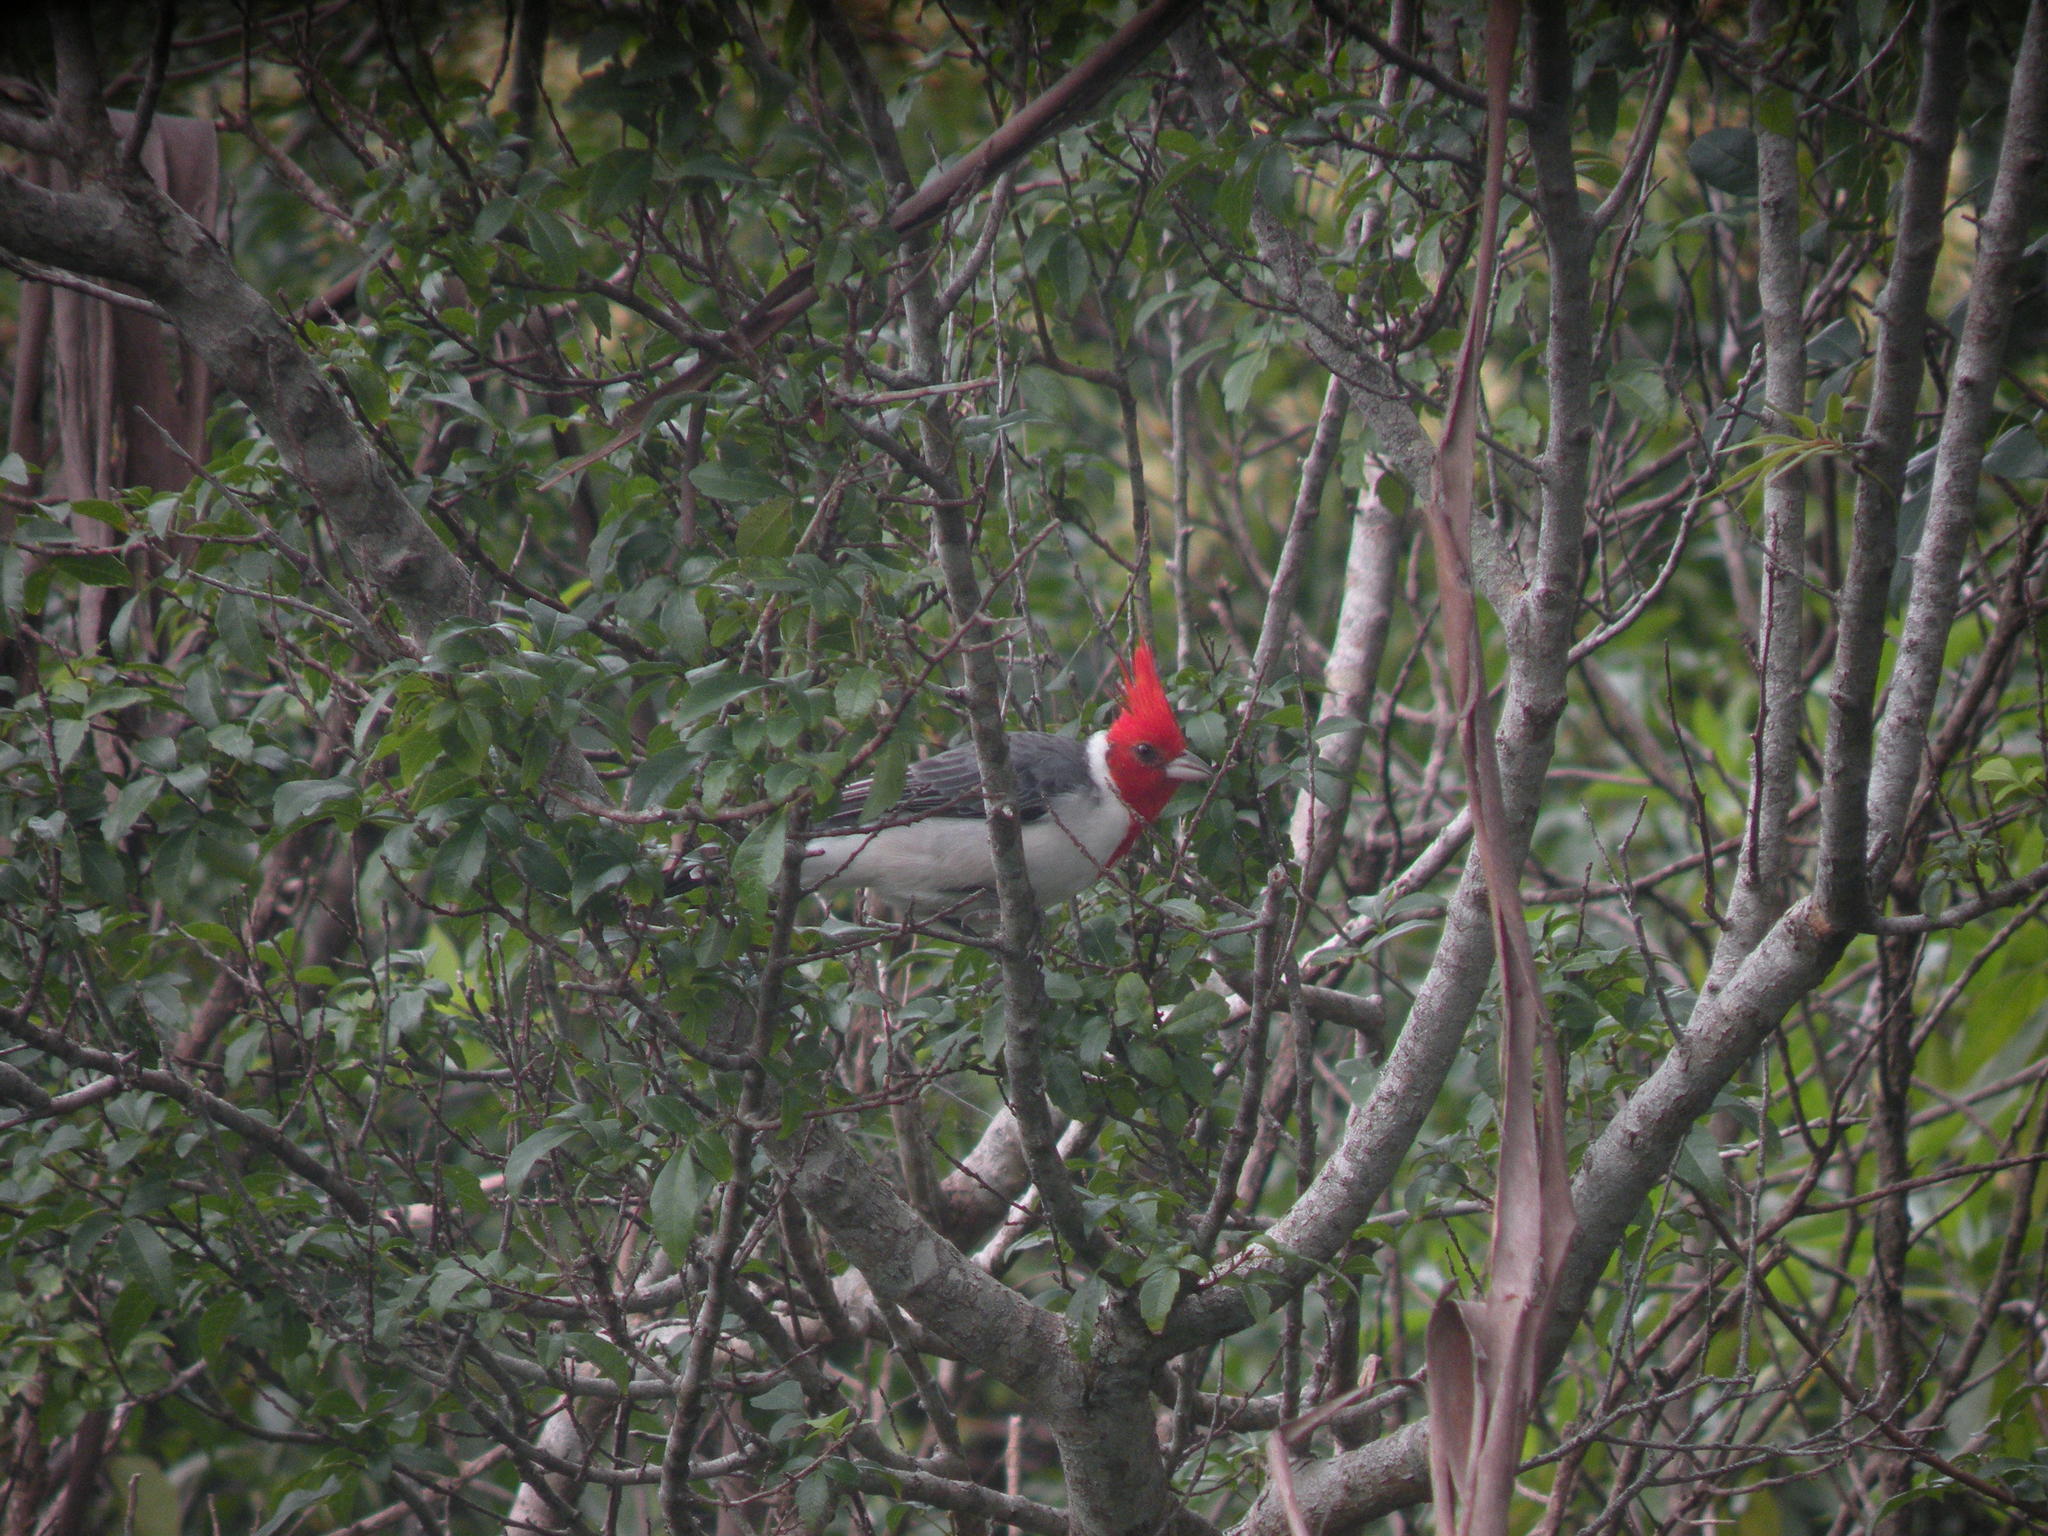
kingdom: Animalia
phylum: Chordata
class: Aves
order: Passeriformes
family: Thraupidae
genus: Paroaria
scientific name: Paroaria coronata
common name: Red-crested cardinal
